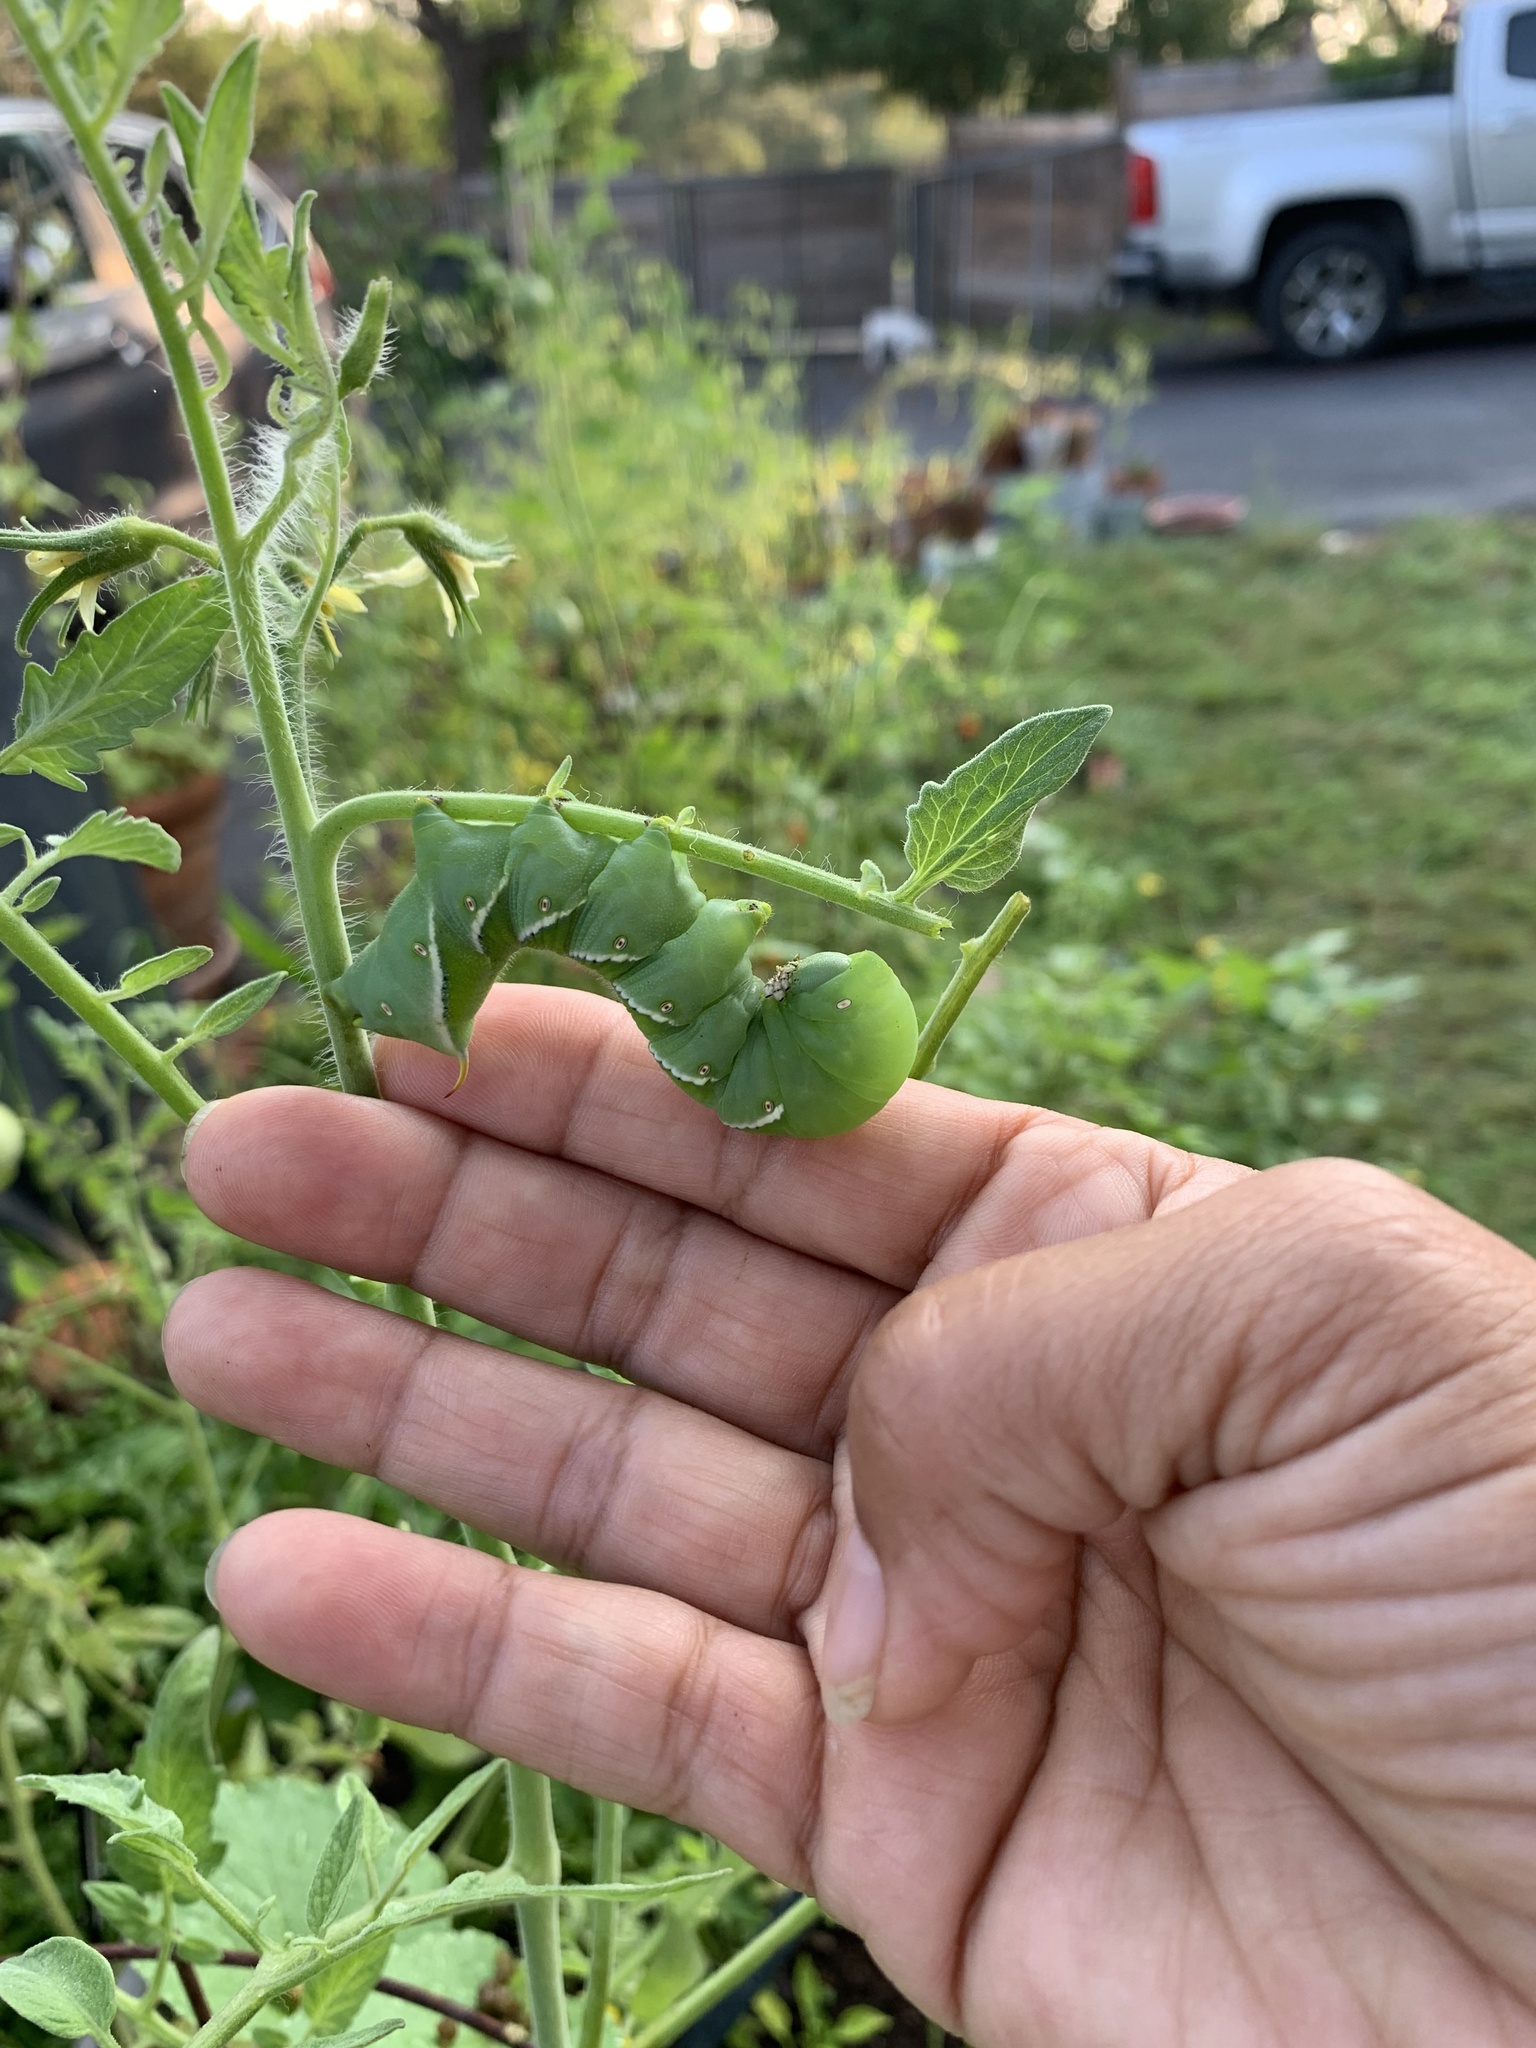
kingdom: Animalia
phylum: Arthropoda
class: Insecta
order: Lepidoptera
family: Sphingidae
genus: Manduca
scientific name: Manduca sexta
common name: Carolina sphinx
